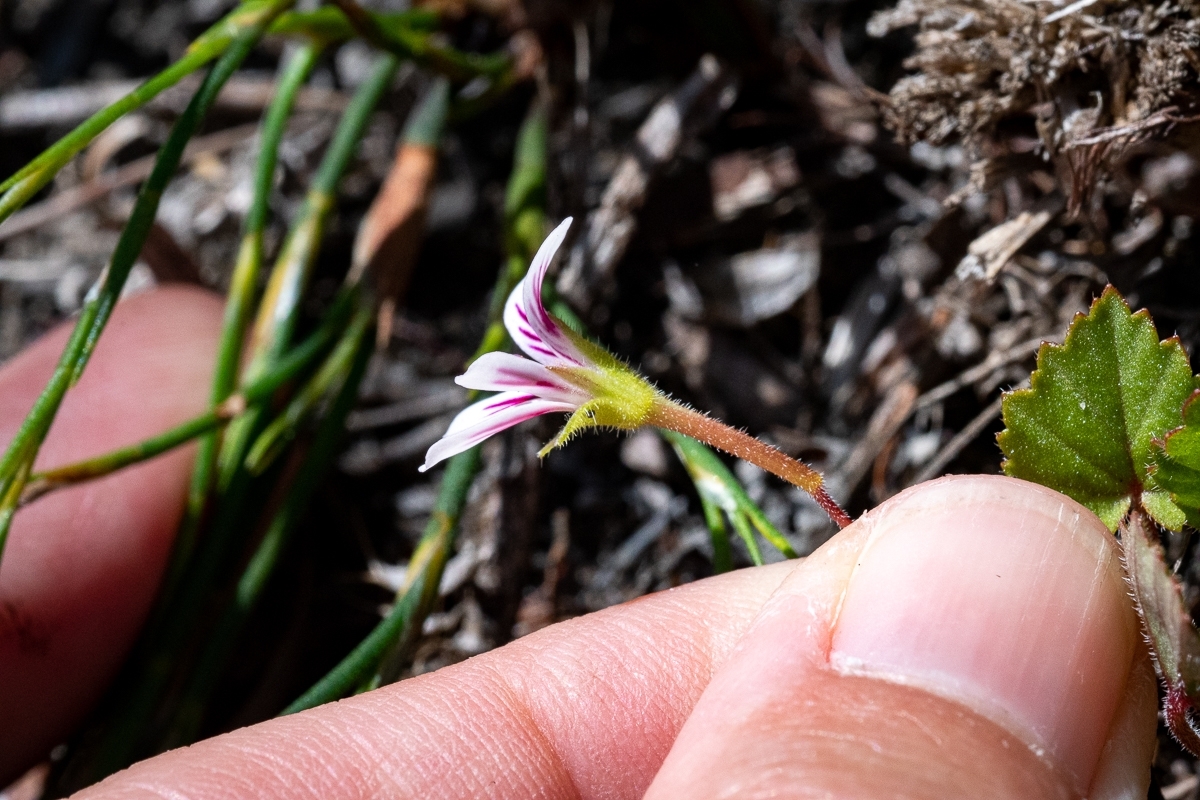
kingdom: Plantae
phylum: Tracheophyta
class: Magnoliopsida
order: Geraniales
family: Geraniaceae
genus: Pelargonium
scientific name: Pelargonium pseudosetulosum
